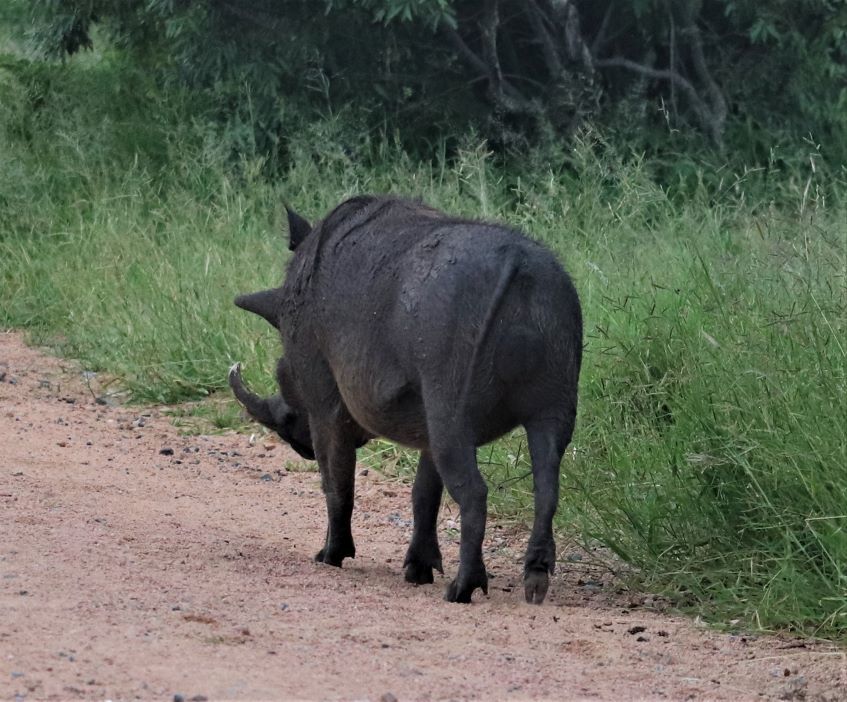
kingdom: Animalia
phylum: Chordata
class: Mammalia
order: Artiodactyla
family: Suidae
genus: Phacochoerus
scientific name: Phacochoerus africanus
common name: Common warthog
